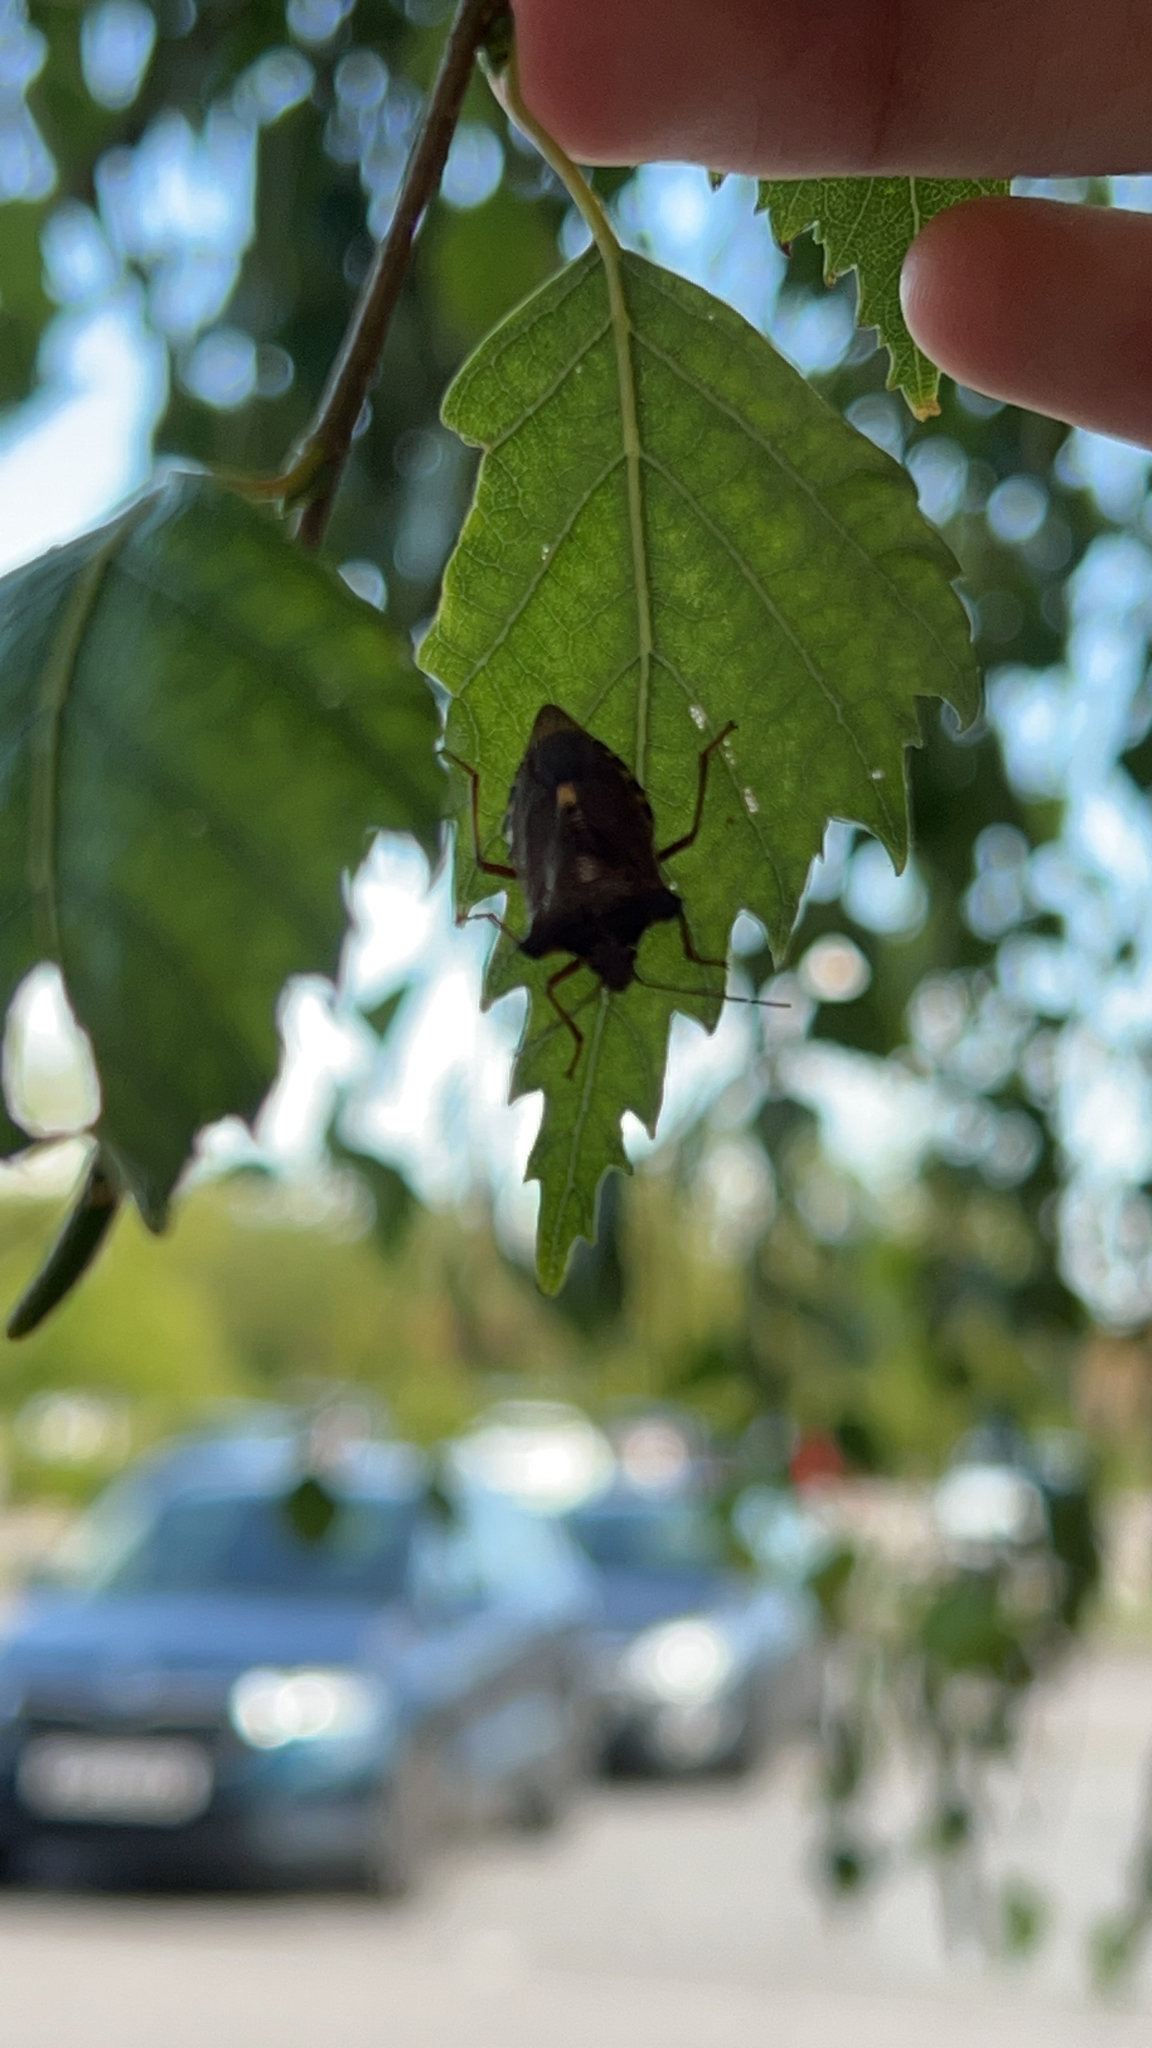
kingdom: Animalia
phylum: Arthropoda
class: Insecta
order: Hemiptera
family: Pentatomidae
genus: Pentatoma
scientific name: Pentatoma rufipes
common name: Forest bug
